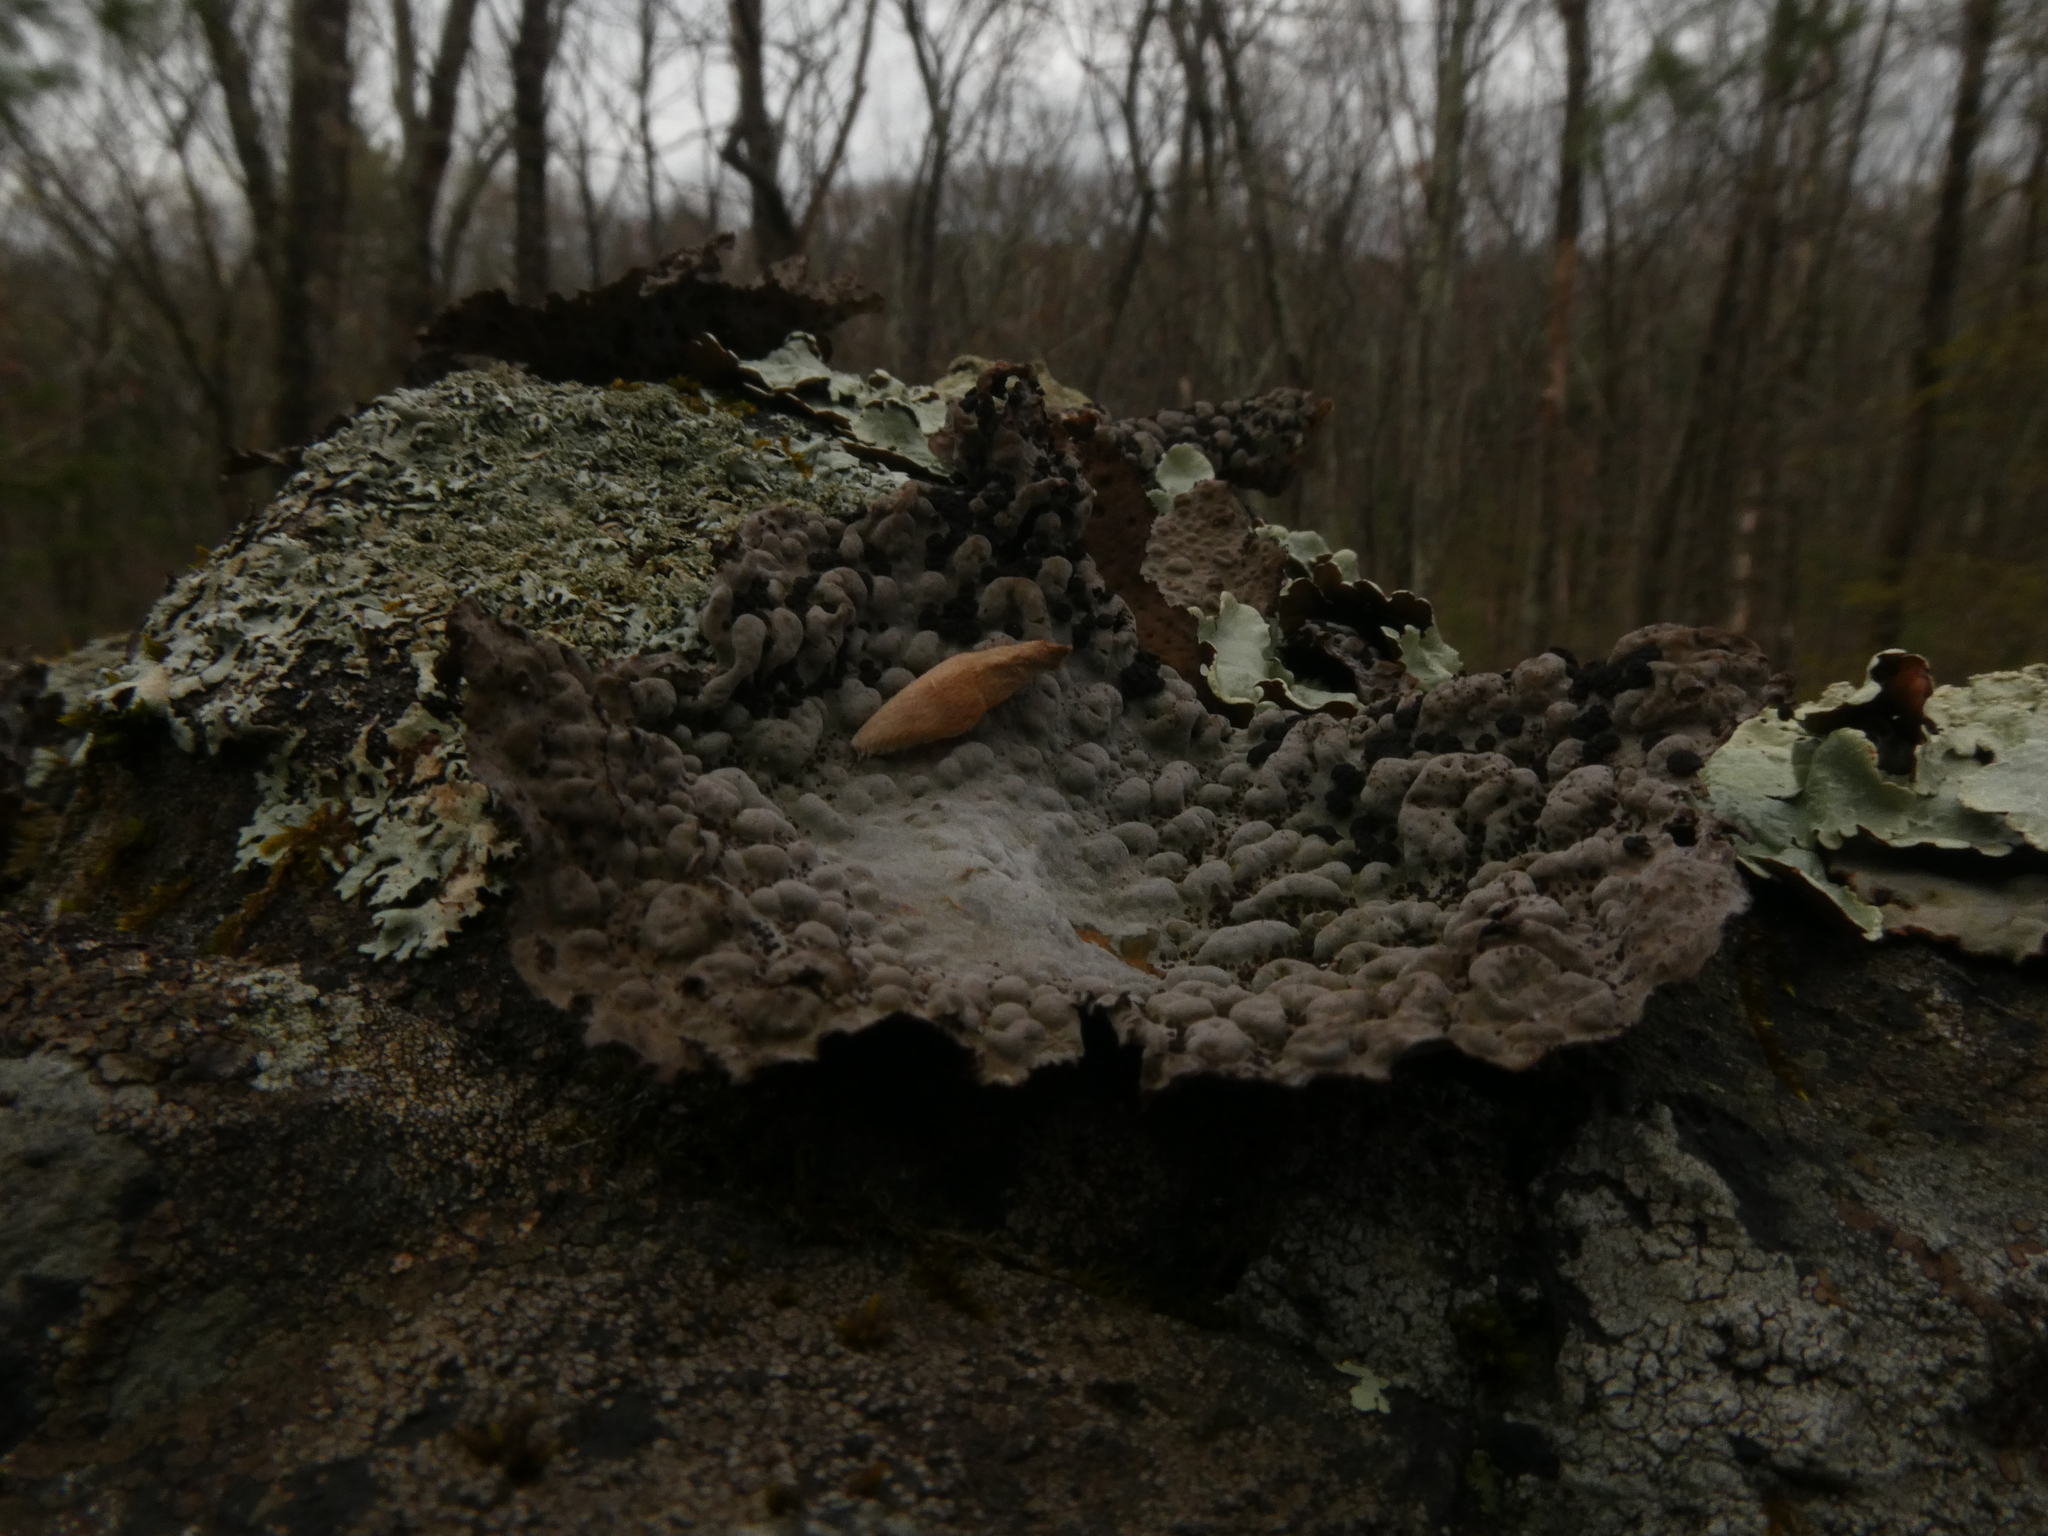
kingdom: Fungi
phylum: Ascomycota
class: Lecanoromycetes
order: Umbilicariales
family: Umbilicariaceae
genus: Lasallia
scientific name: Lasallia papulosa
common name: Common toadskin lichen
